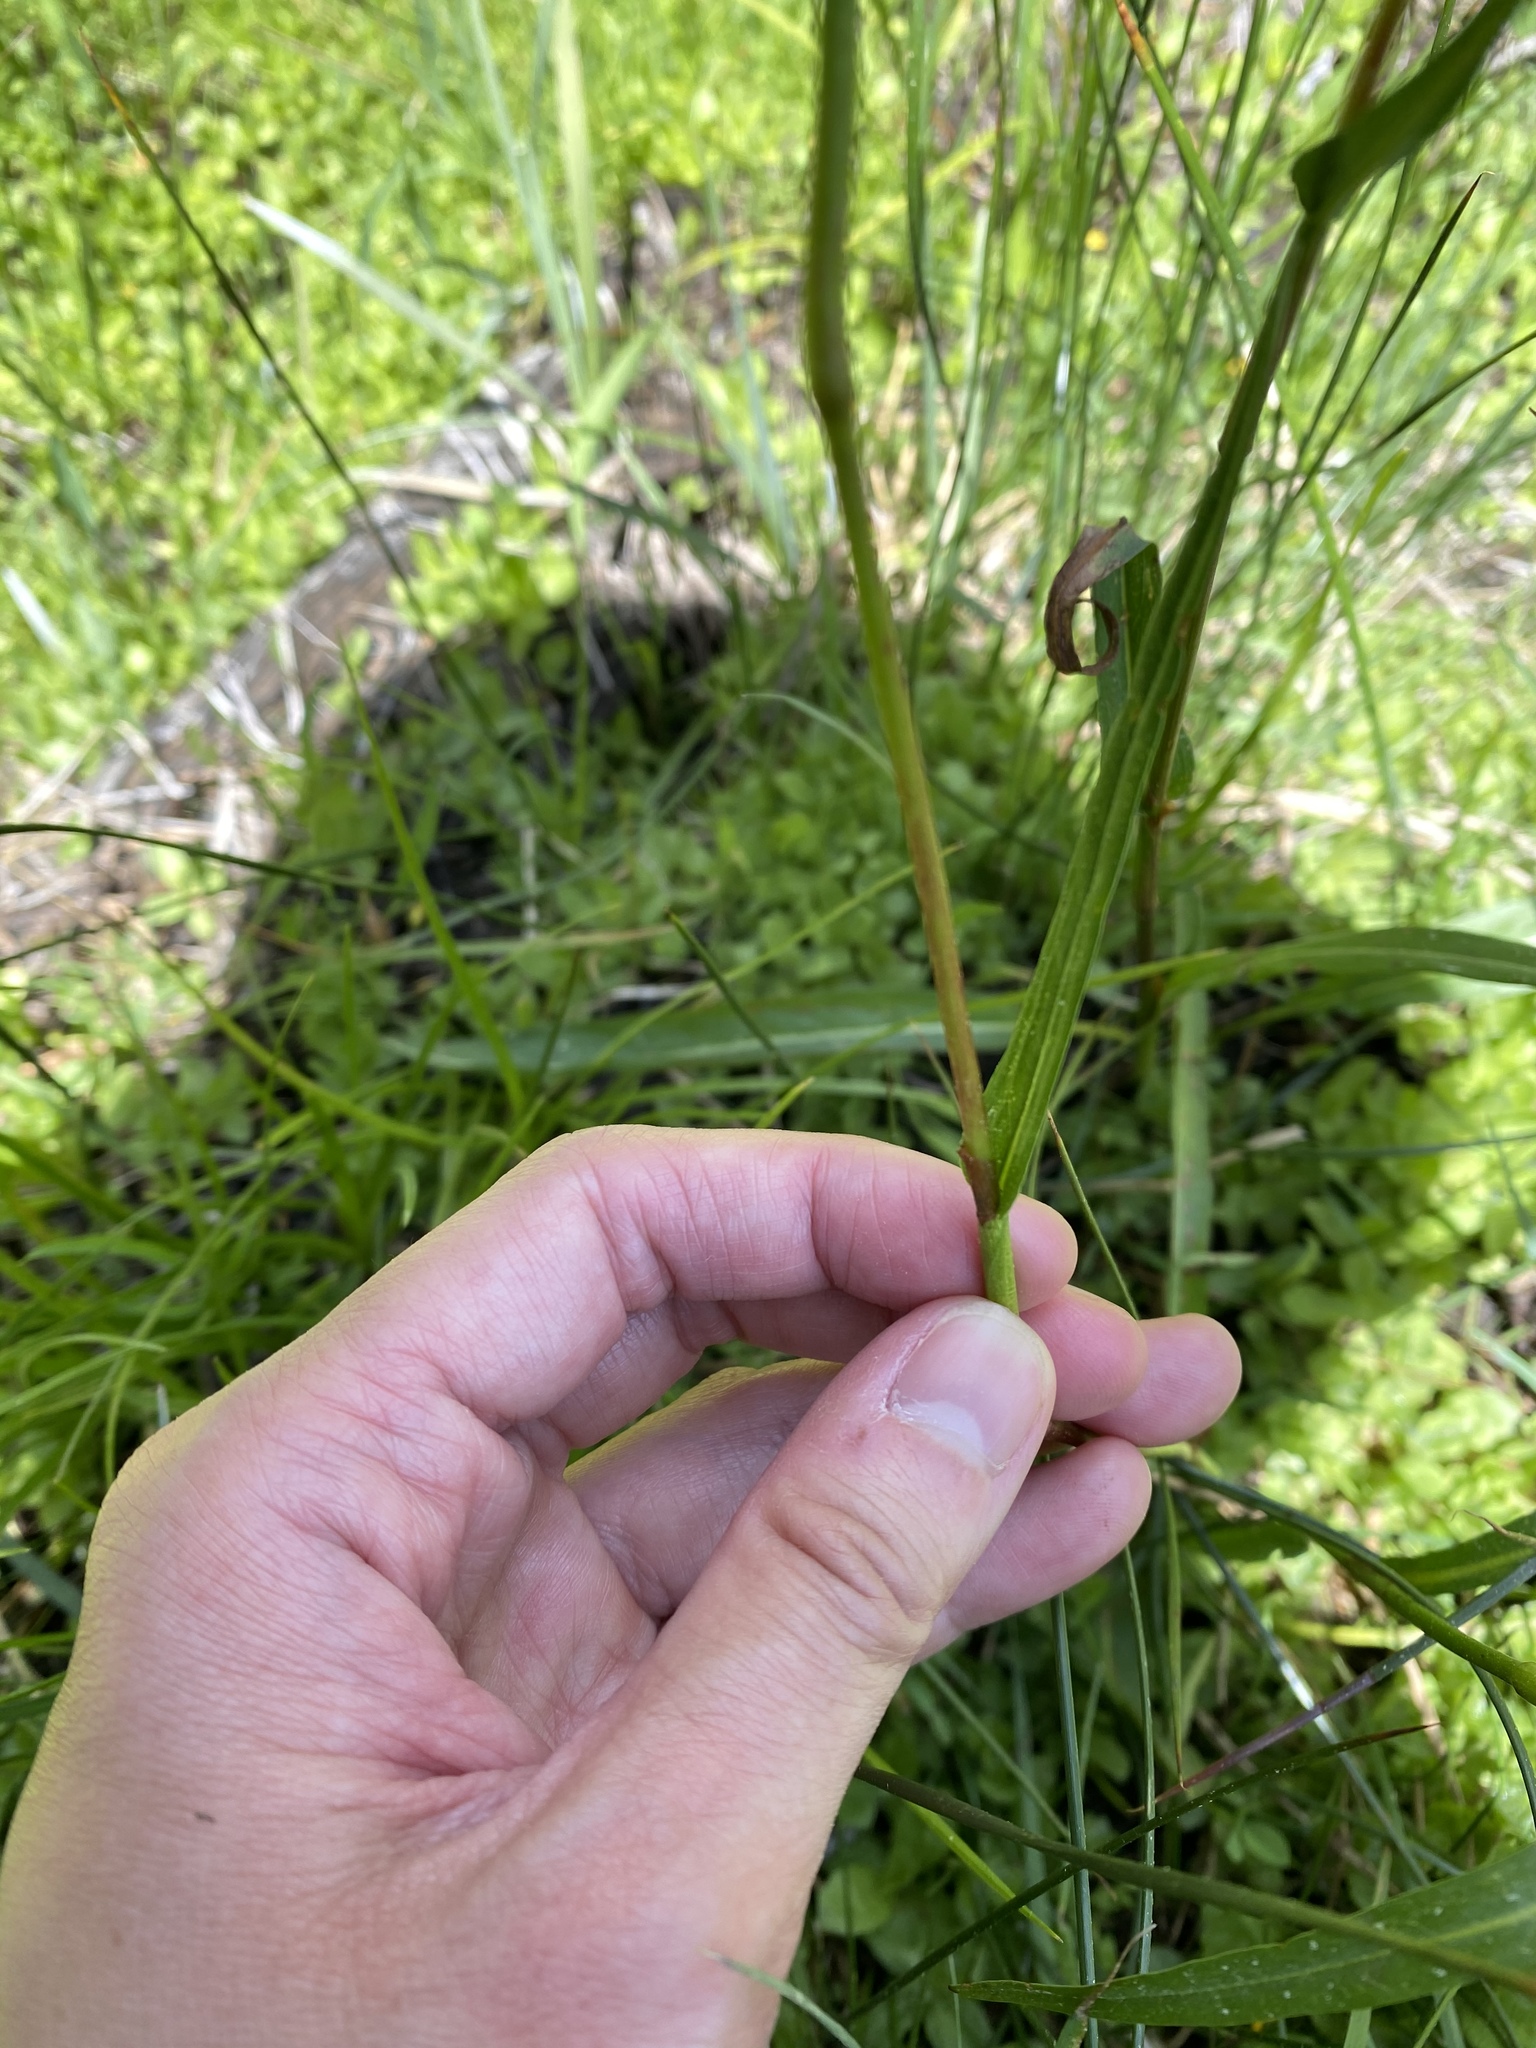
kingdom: Plantae
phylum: Tracheophyta
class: Magnoliopsida
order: Caryophyllales
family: Polygonaceae
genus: Bistorta
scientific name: Bistorta bistortoides
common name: American bistort
